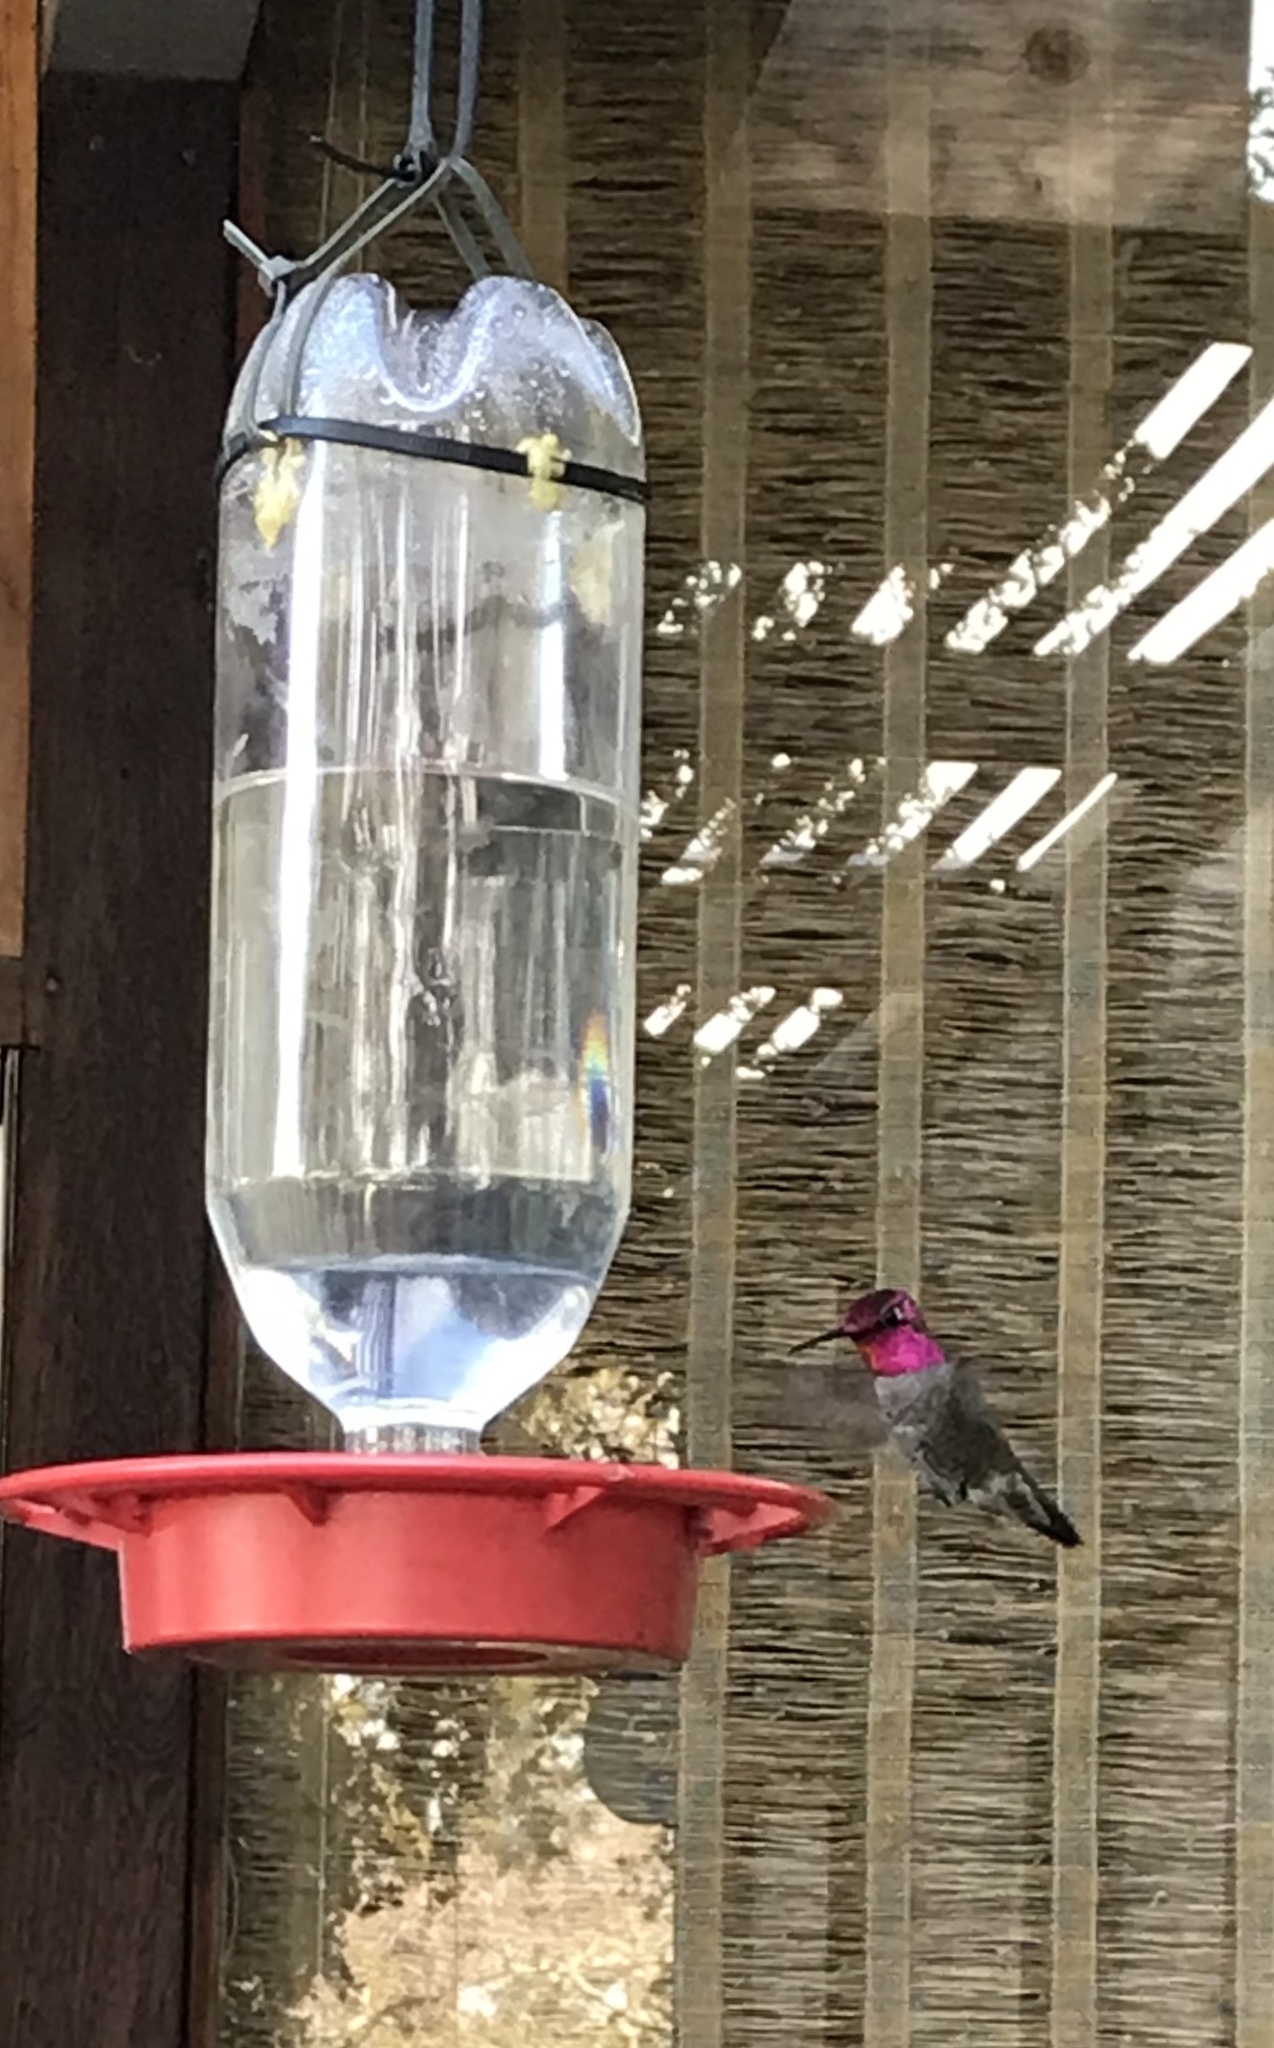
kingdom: Animalia
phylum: Chordata
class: Aves
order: Apodiformes
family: Trochilidae
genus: Calypte
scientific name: Calypte anna
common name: Anna's hummingbird
